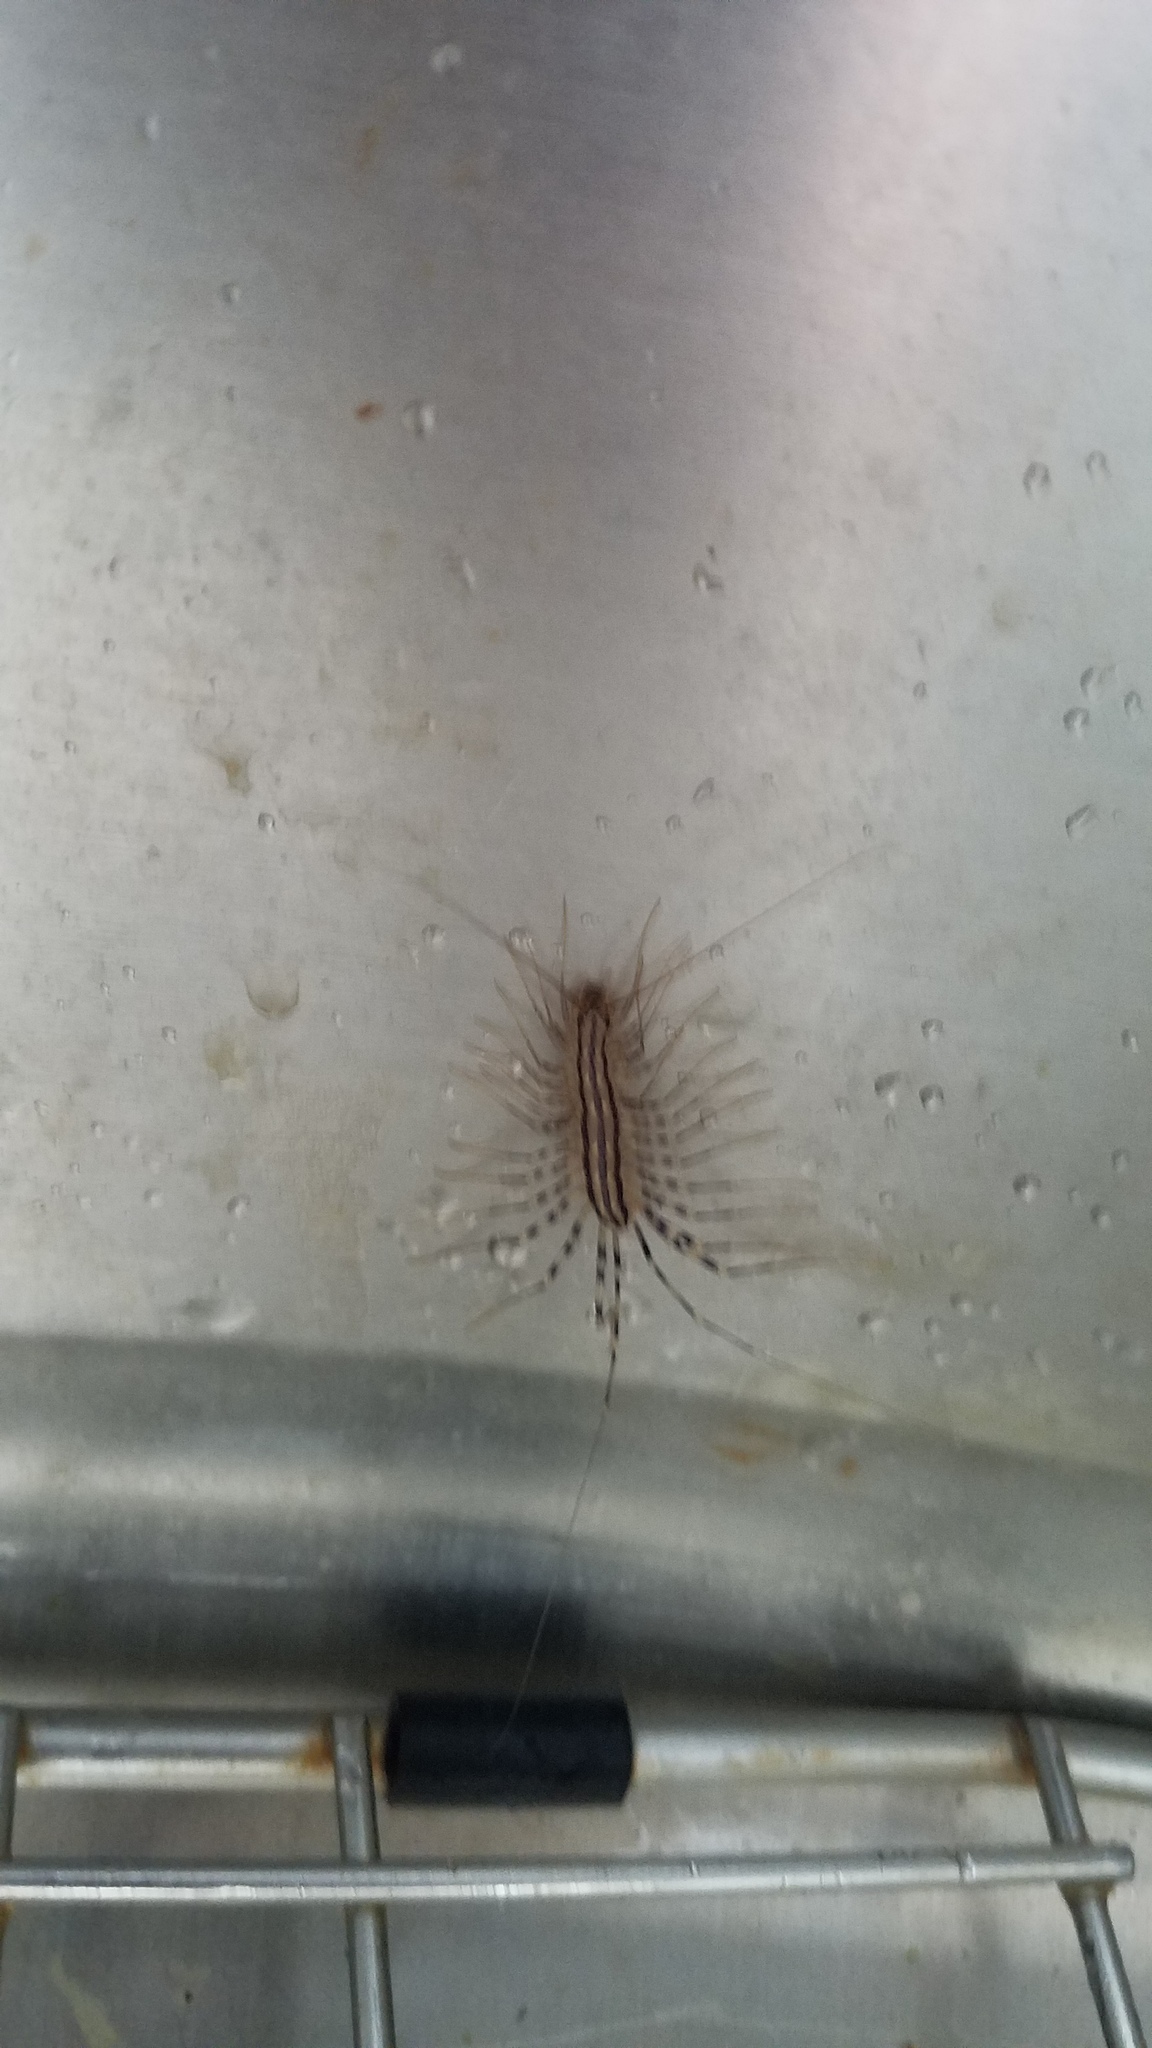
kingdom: Animalia
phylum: Arthropoda
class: Chilopoda
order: Scutigeromorpha
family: Scutigeridae
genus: Scutigera
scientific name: Scutigera coleoptrata
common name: House centipede
